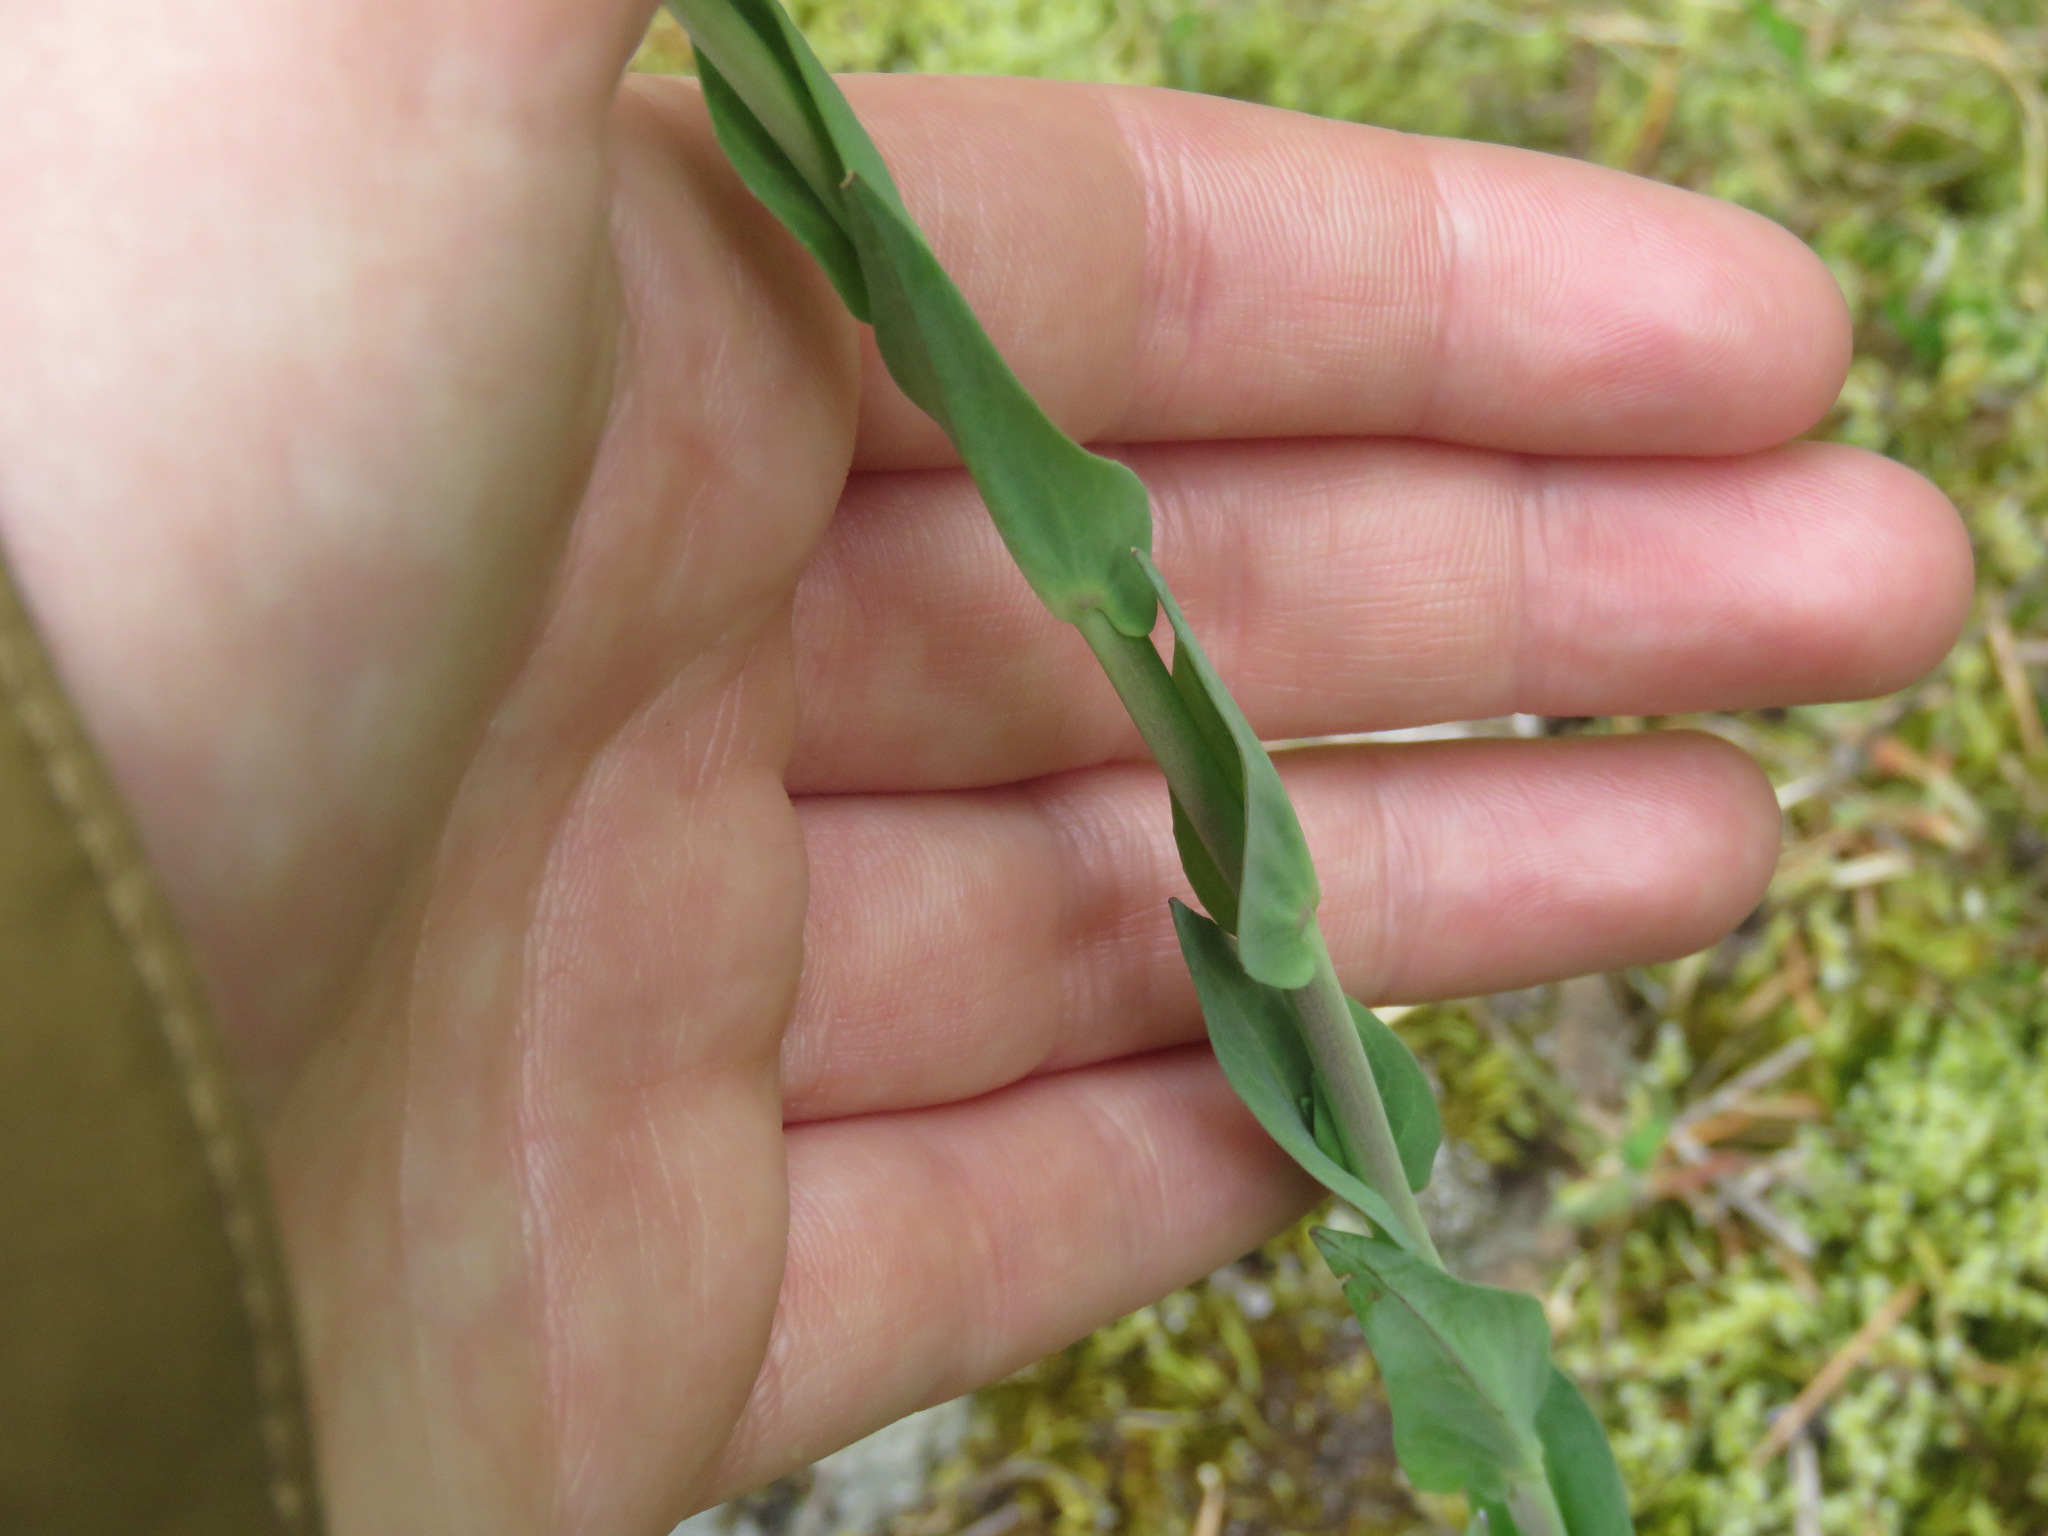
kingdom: Plantae
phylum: Tracheophyta
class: Magnoliopsida
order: Brassicales
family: Brassicaceae
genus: Turritis
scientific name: Turritis glabra
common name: Tower rockcress
